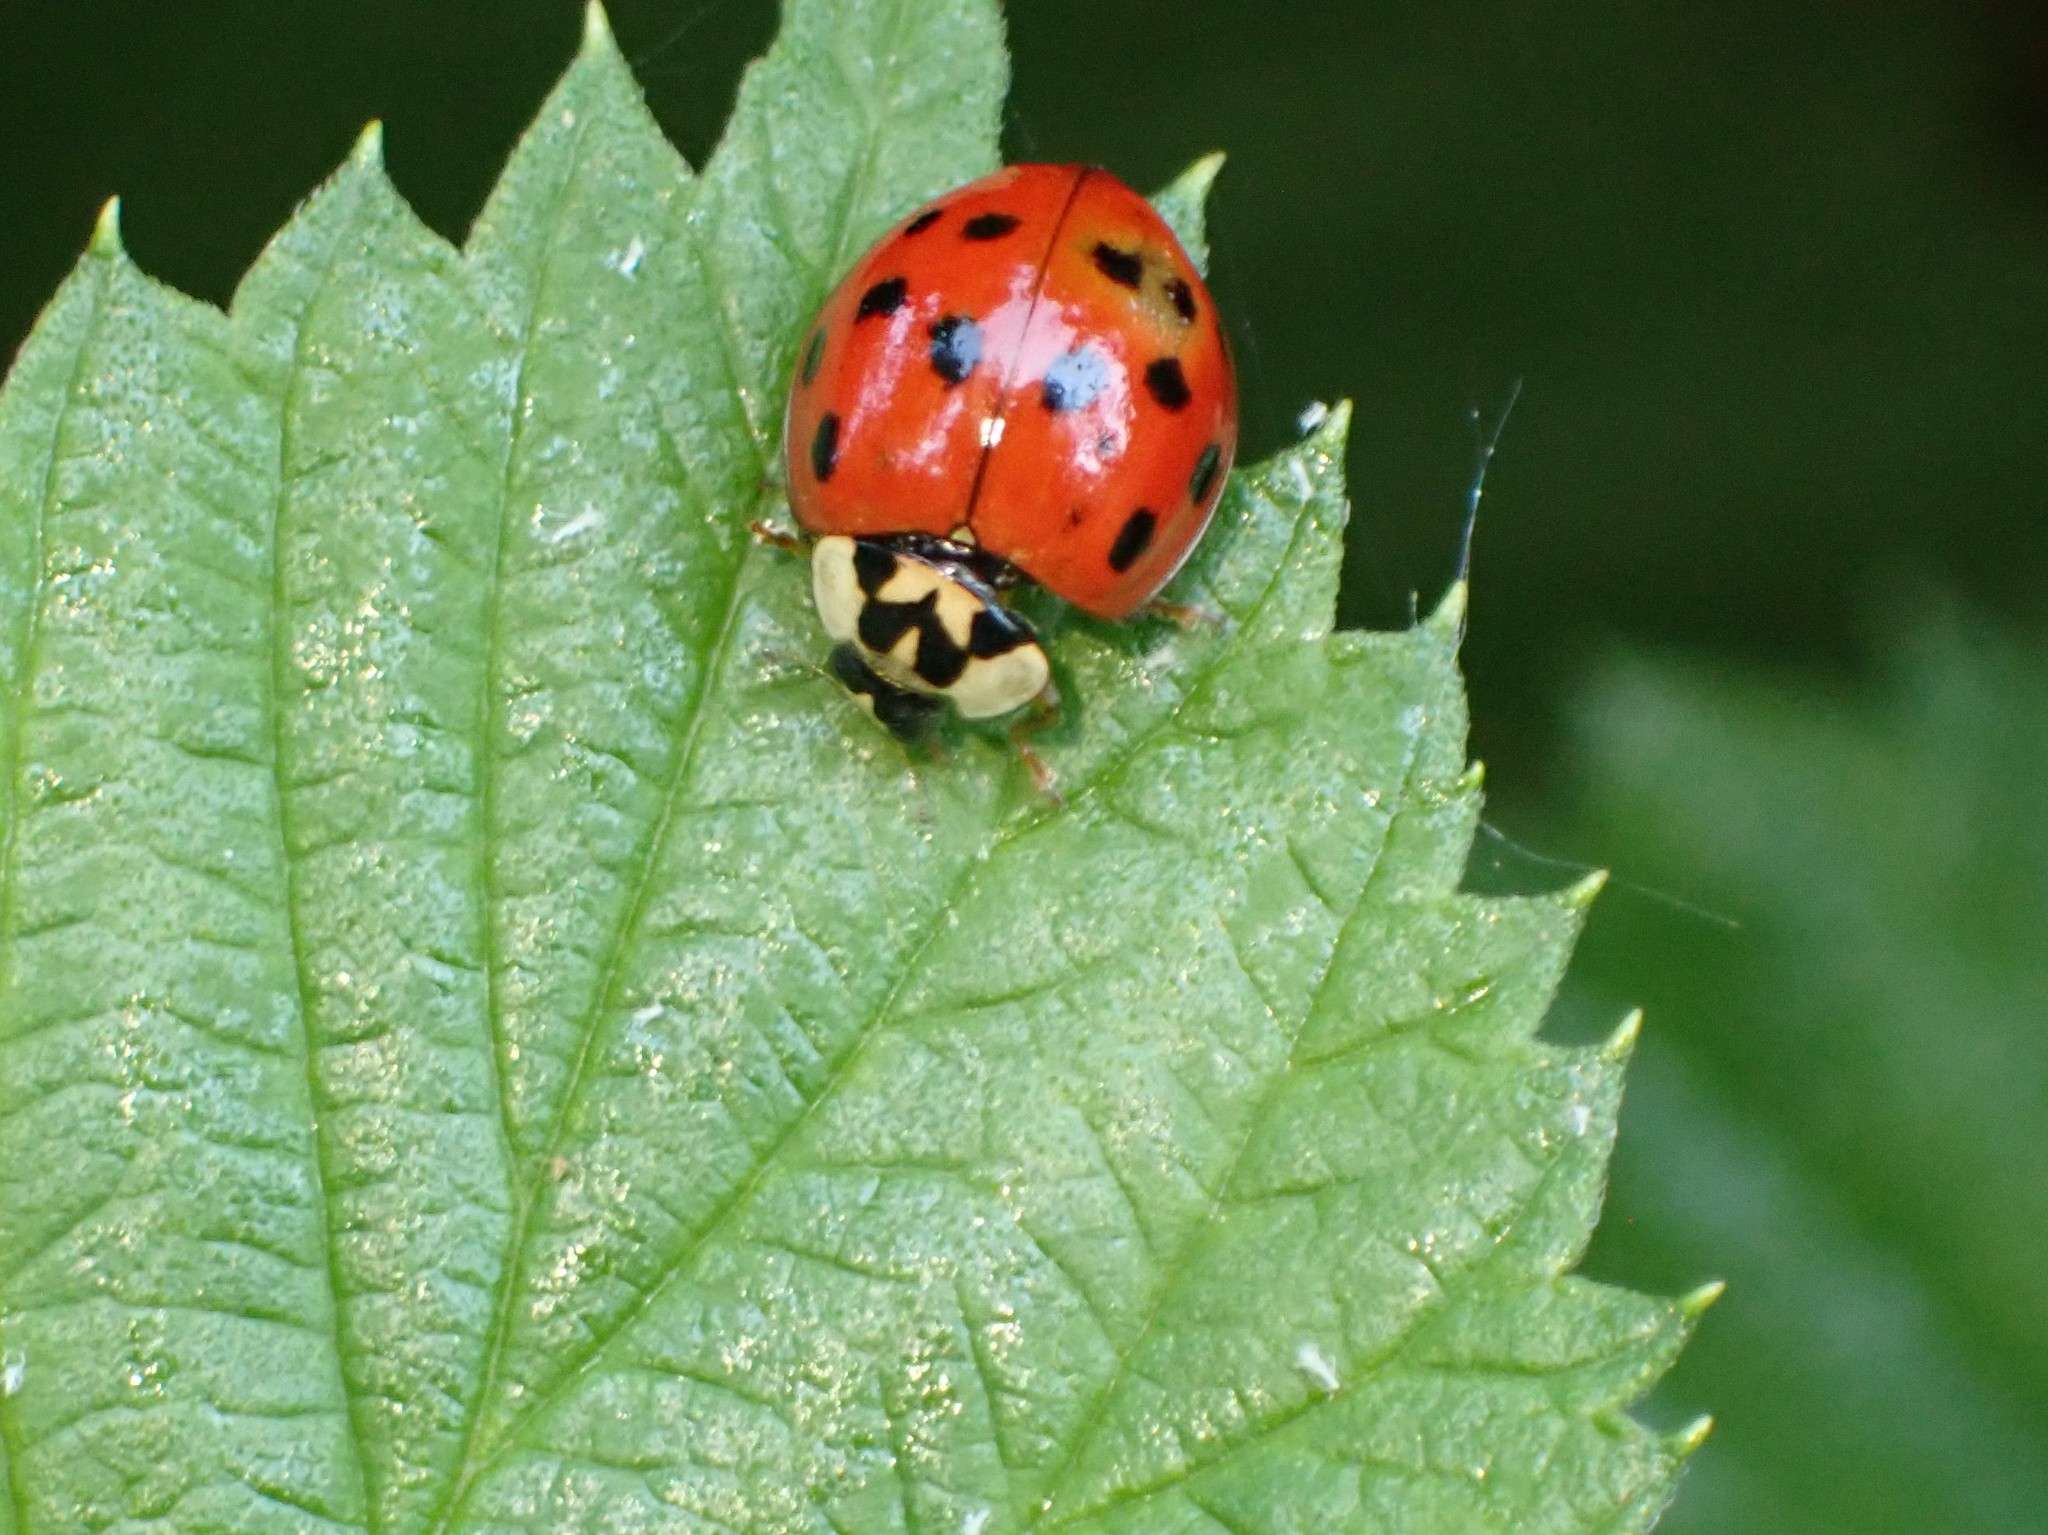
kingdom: Animalia
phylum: Arthropoda
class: Insecta
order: Coleoptera
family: Coccinellidae
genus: Harmonia
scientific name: Harmonia axyridis
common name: Harlequin ladybird
